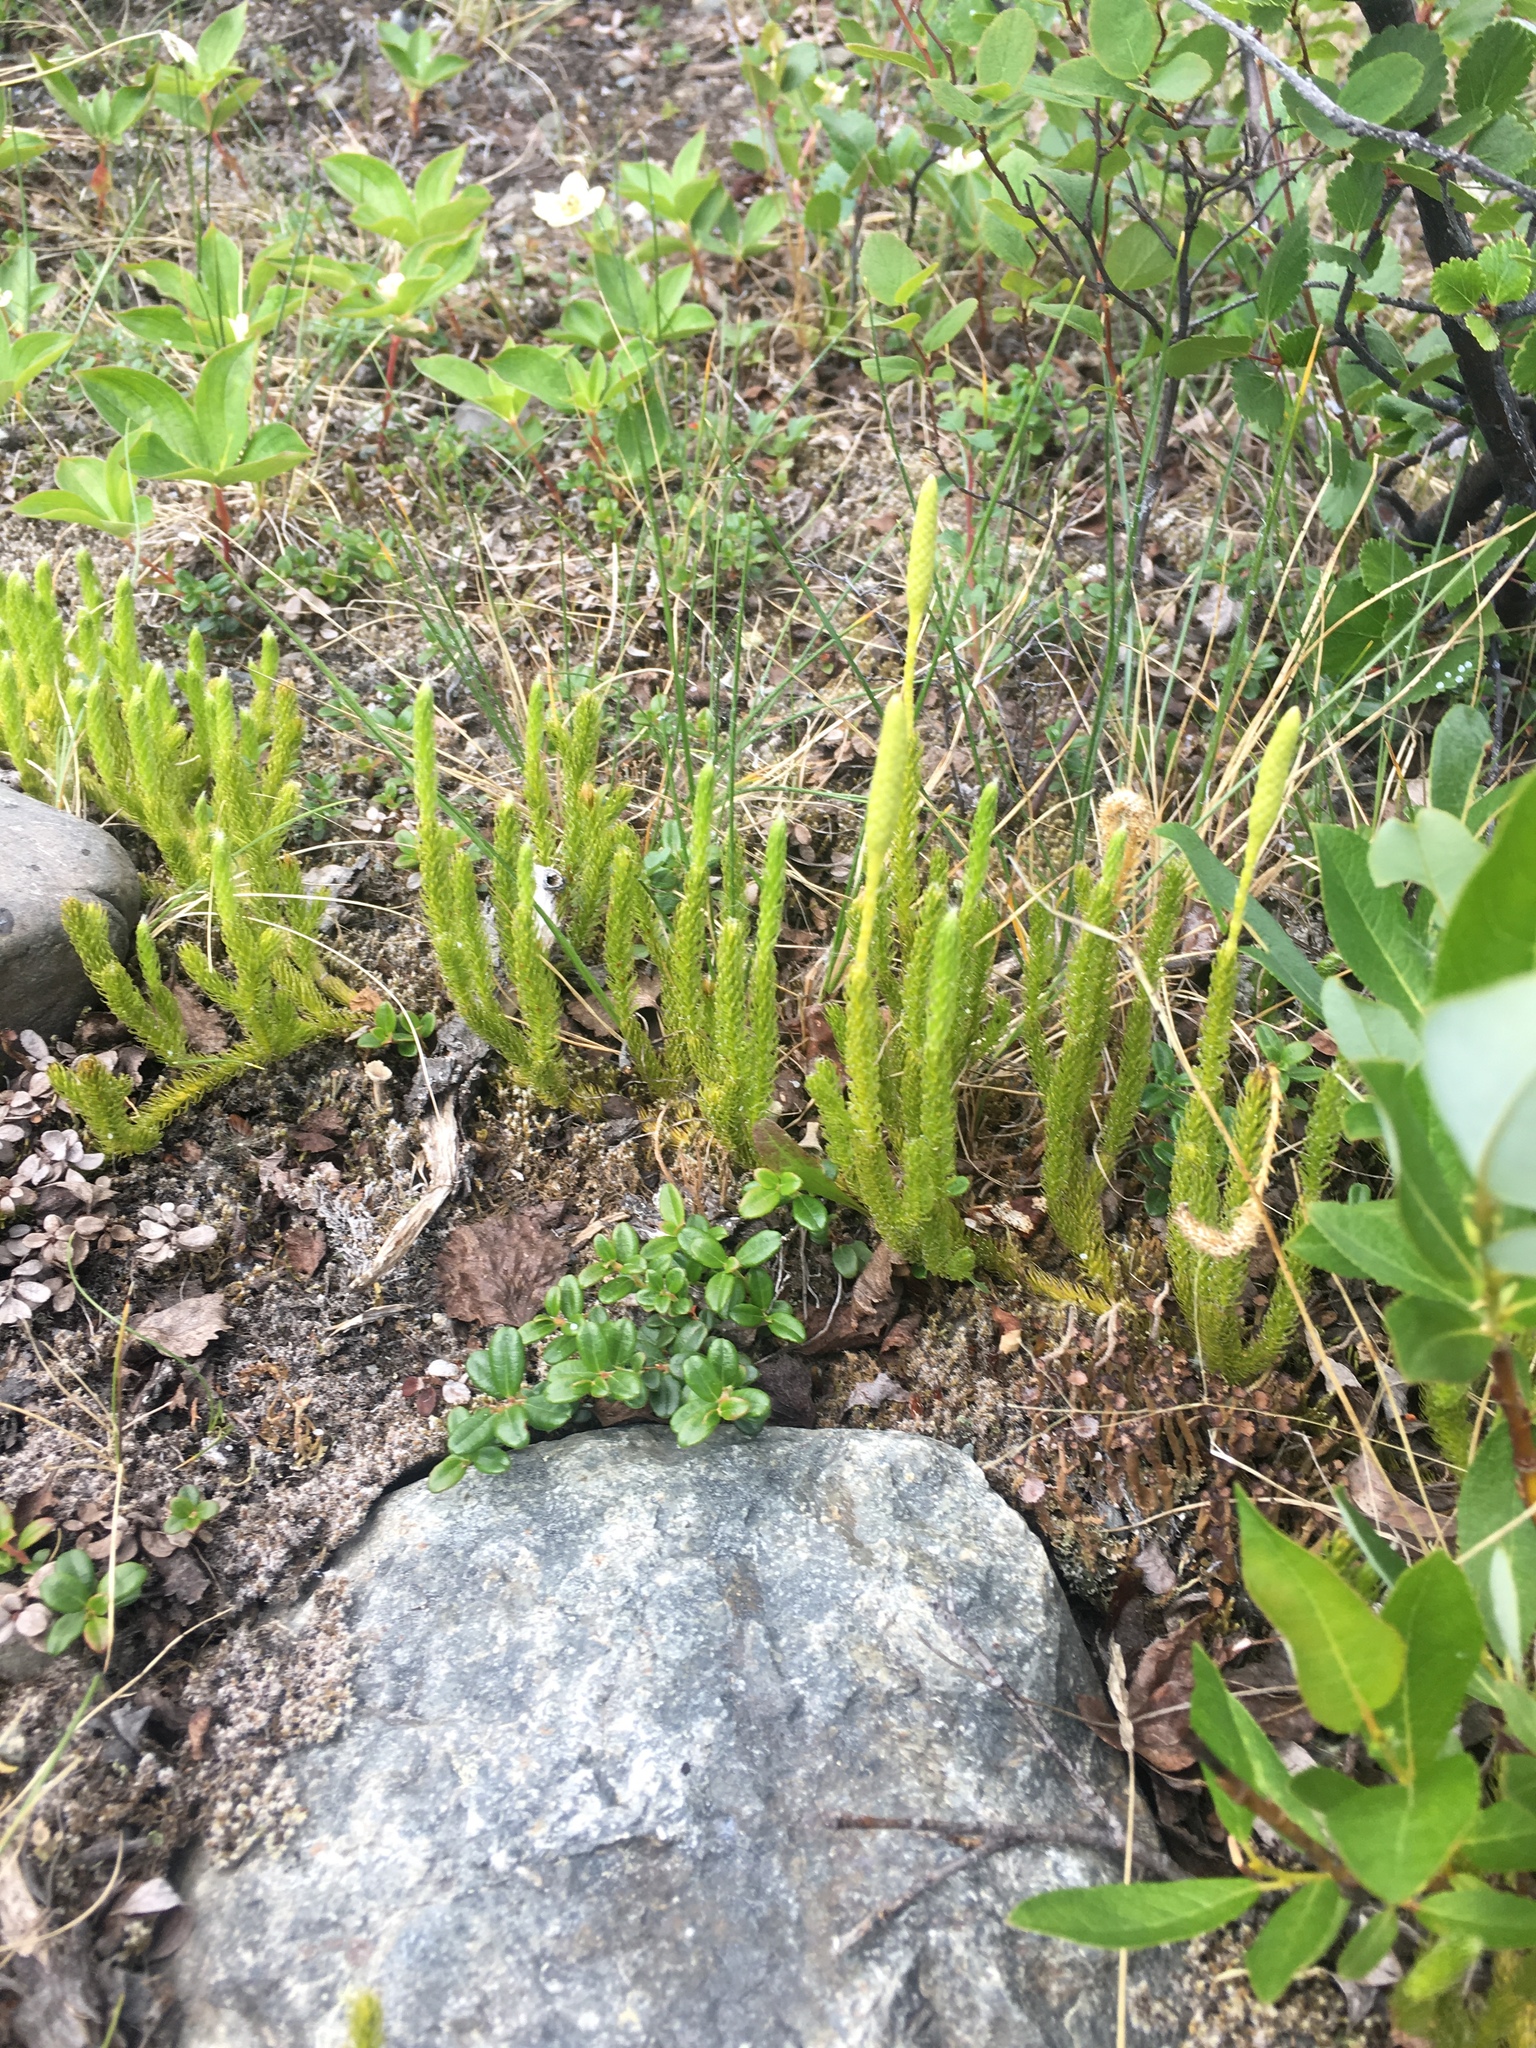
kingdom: Plantae
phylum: Tracheophyta
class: Lycopodiopsida
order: Lycopodiales
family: Lycopodiaceae
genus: Lycopodium
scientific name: Lycopodium lagopus
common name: One-cone clubmoss
